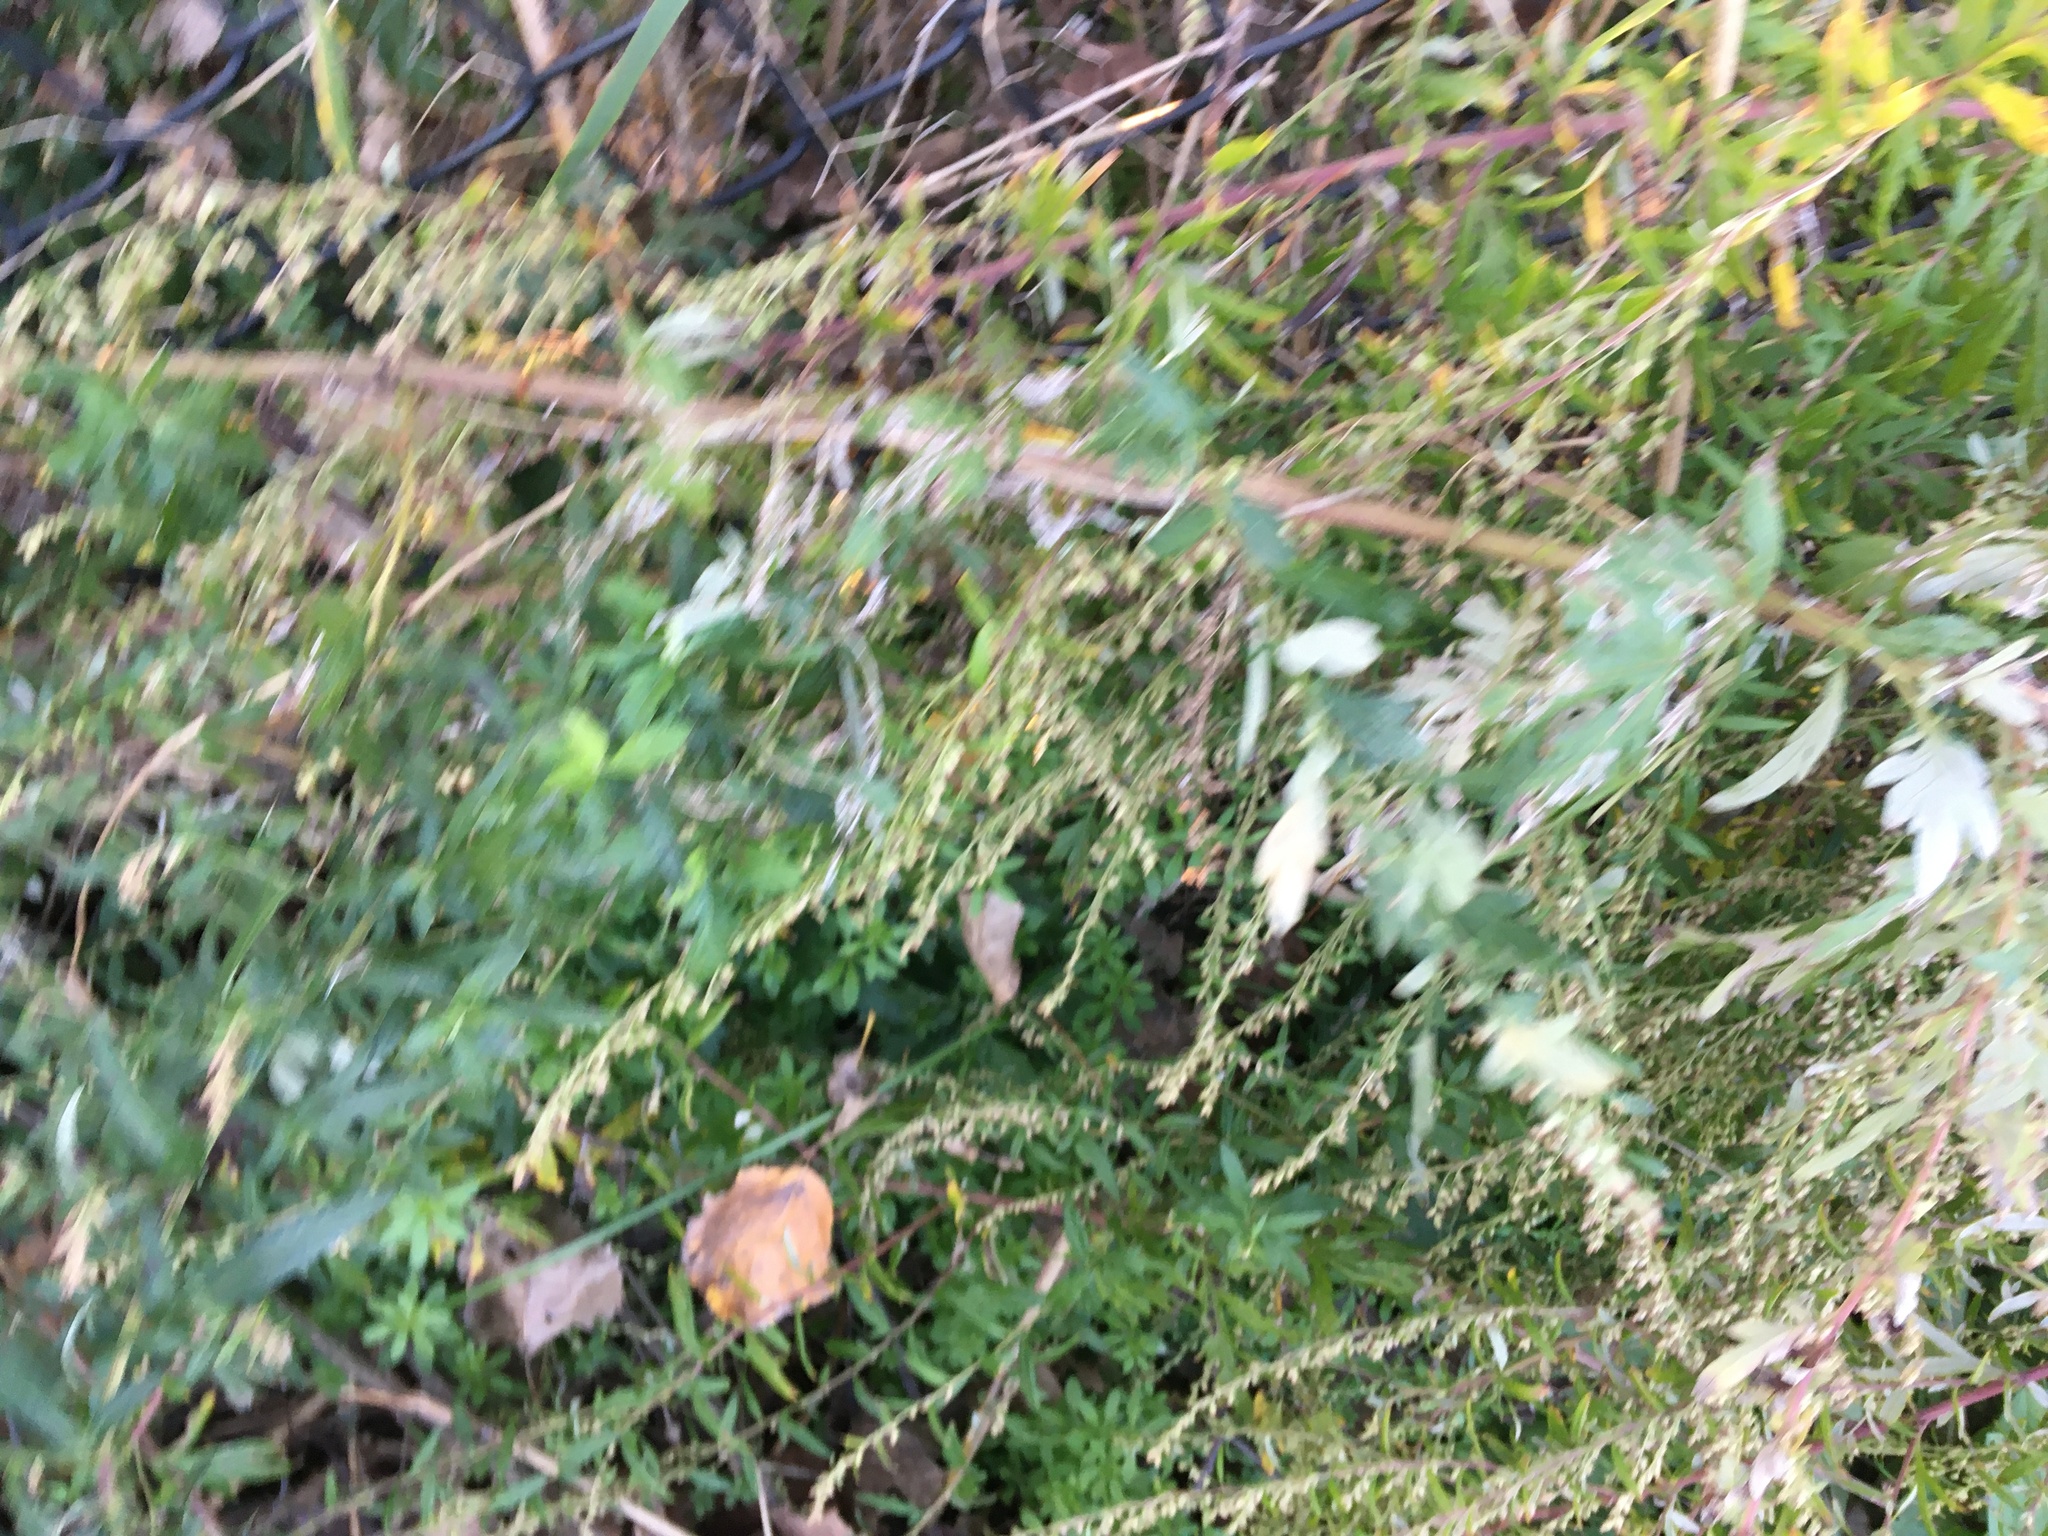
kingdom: Plantae
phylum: Tracheophyta
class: Magnoliopsida
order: Asterales
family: Asteraceae
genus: Artemisia
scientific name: Artemisia vulgaris
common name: Mugwort
